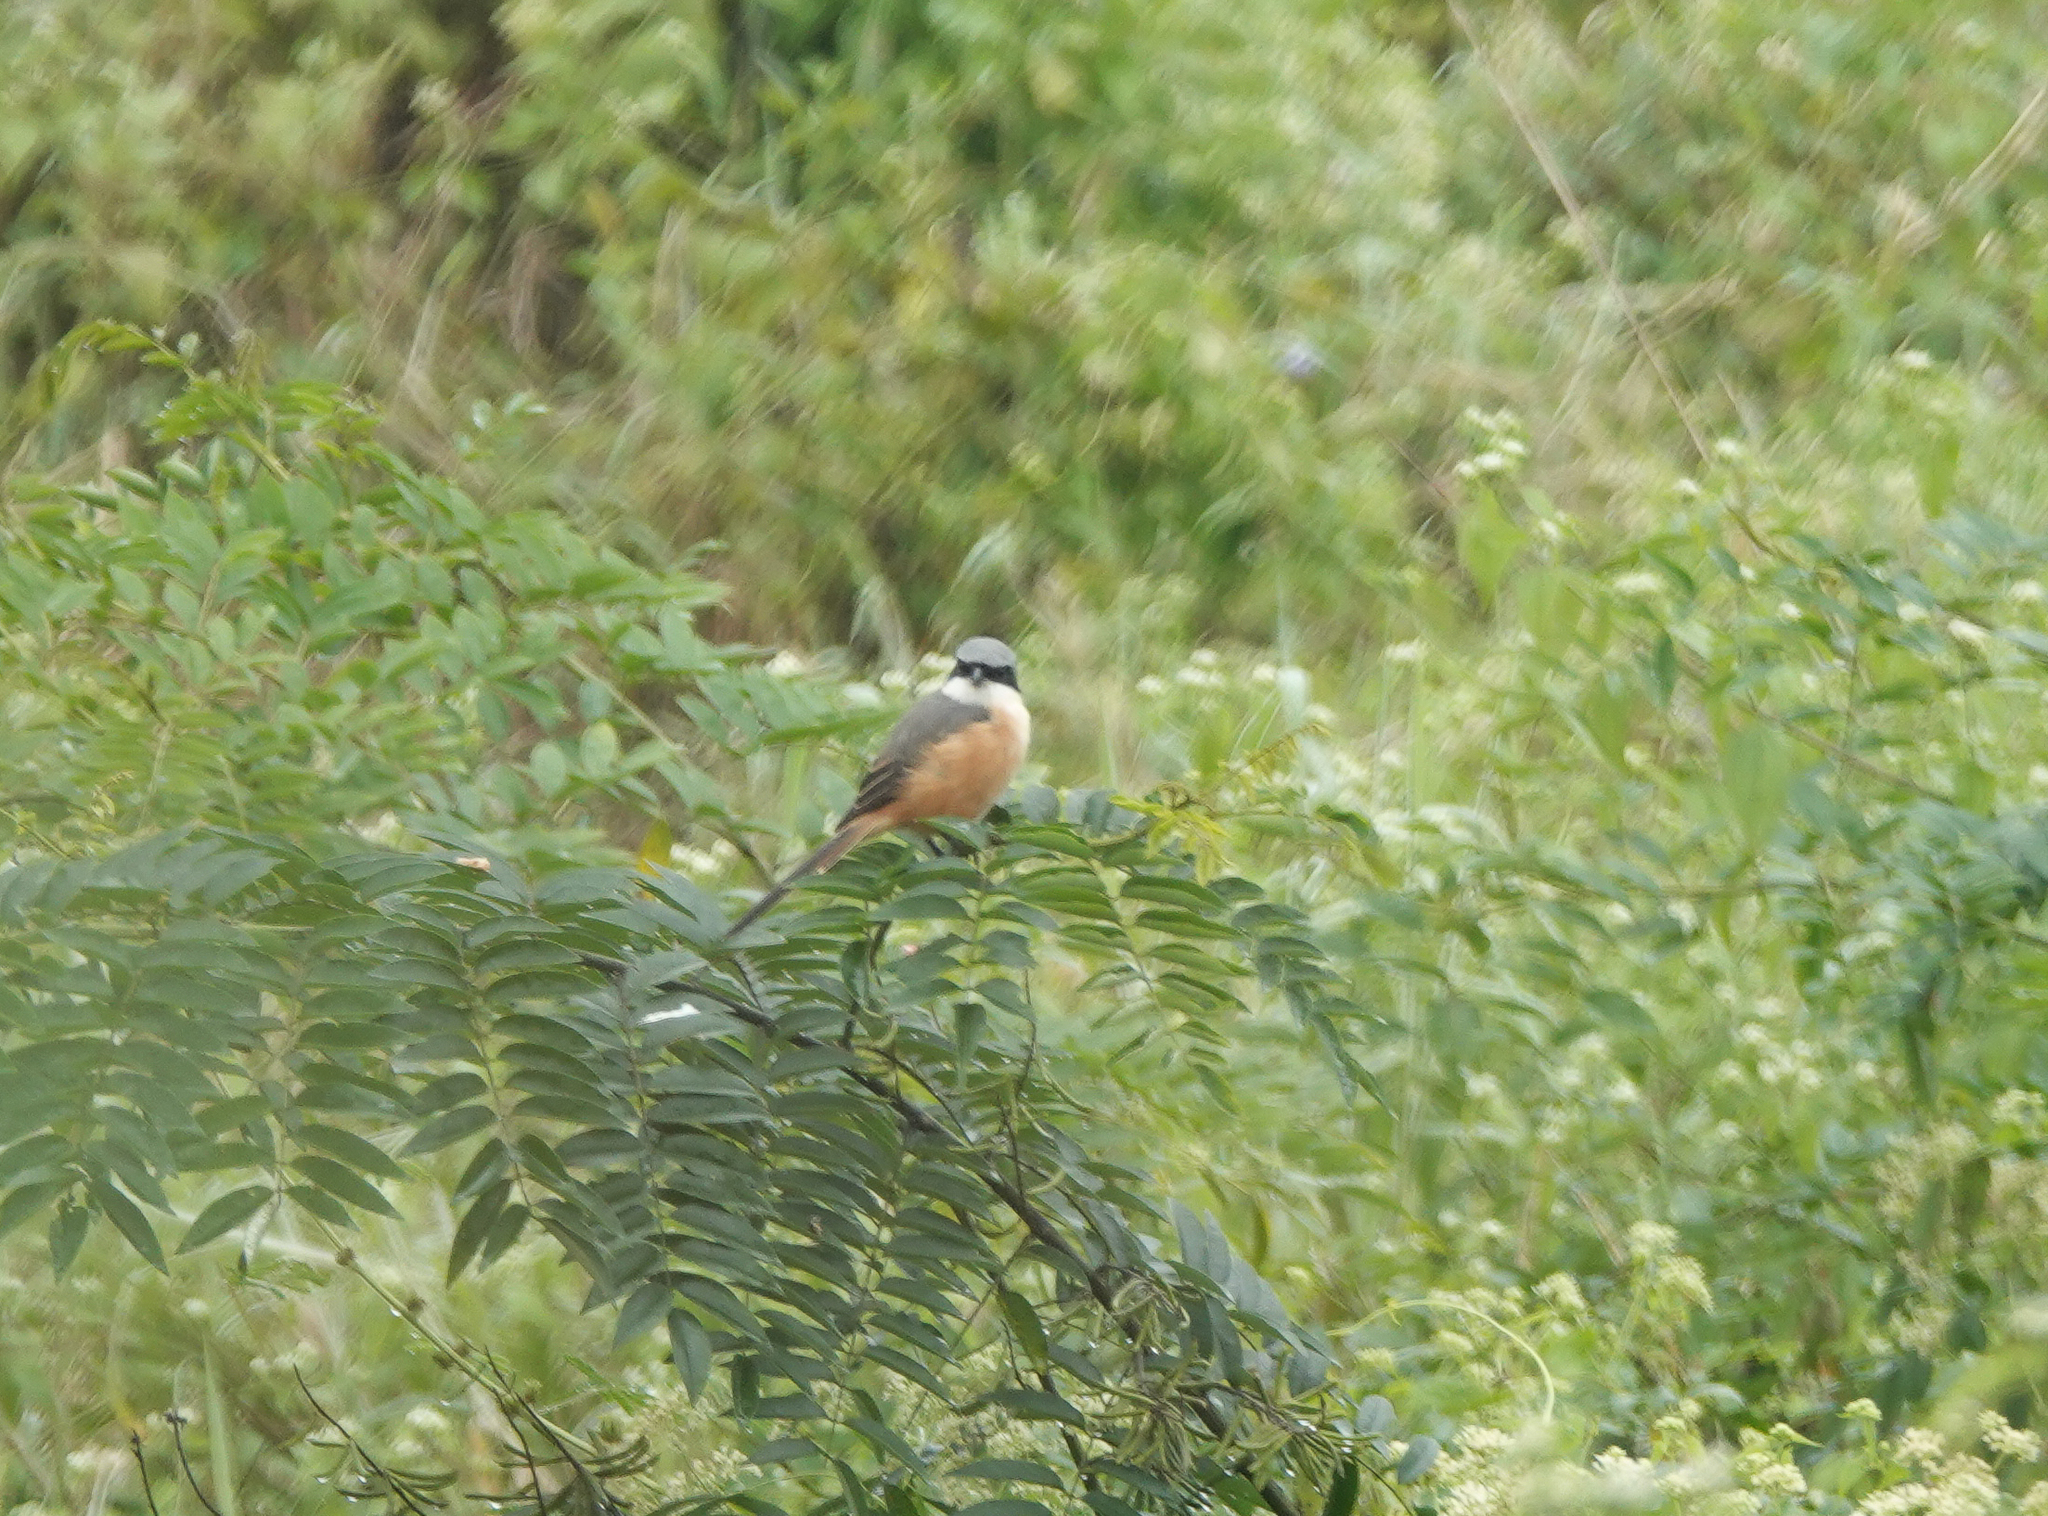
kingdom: Animalia
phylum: Chordata
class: Aves
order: Passeriformes
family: Laniidae
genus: Lanius
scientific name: Lanius schach
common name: Long-tailed shrike
